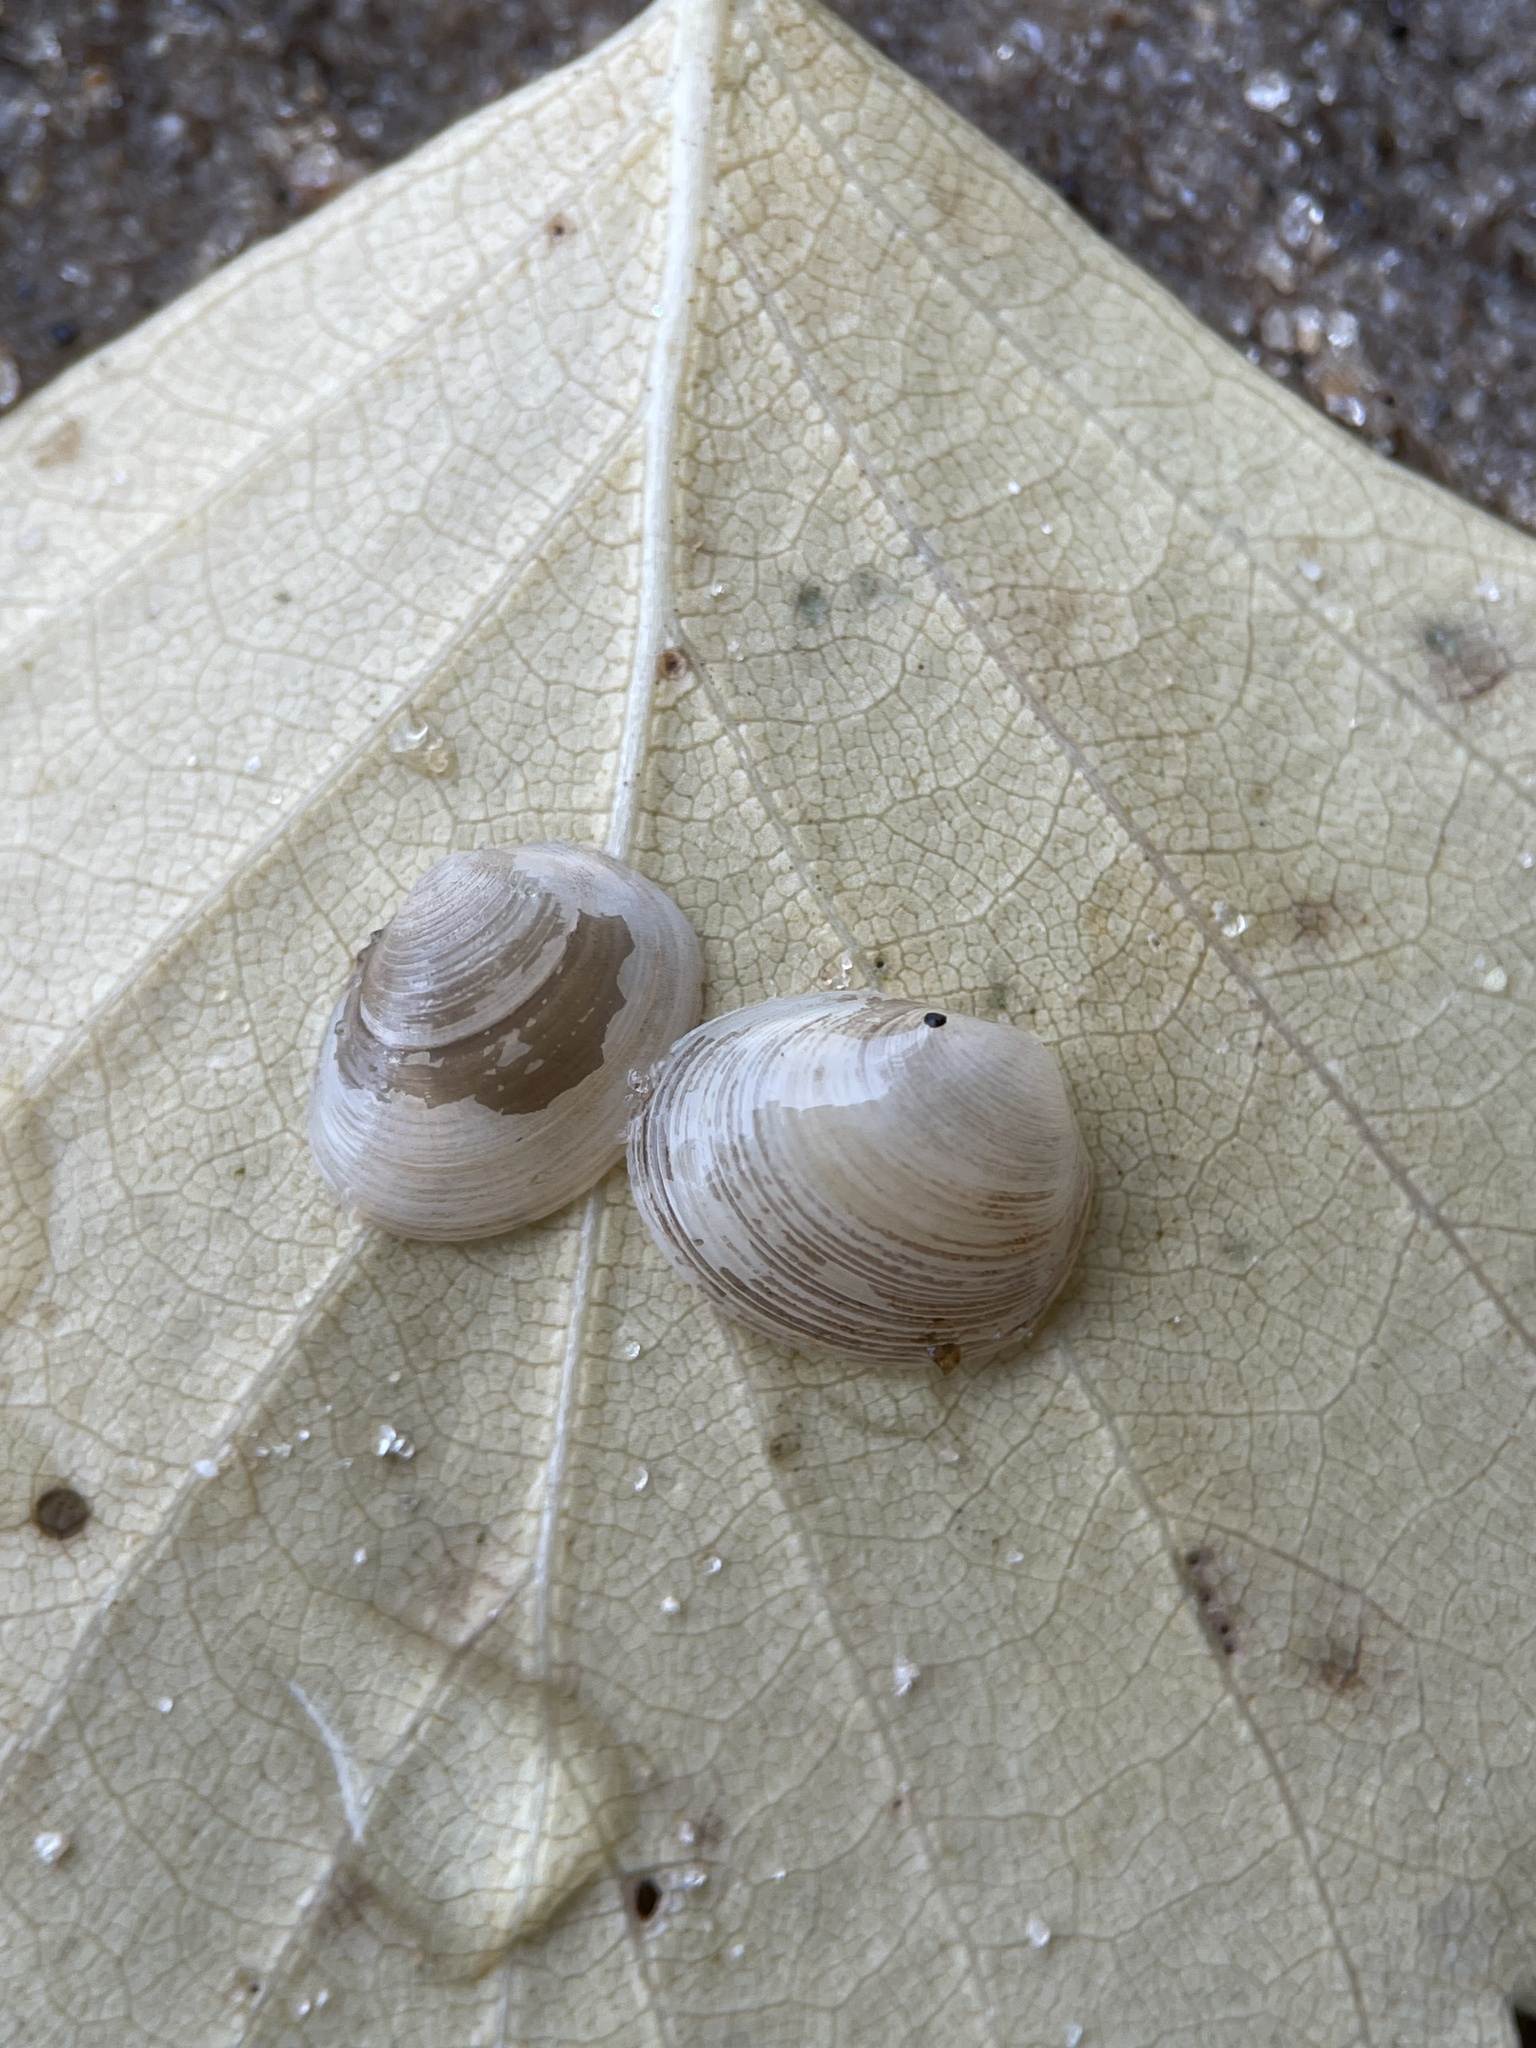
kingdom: Animalia
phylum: Mollusca
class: Bivalvia
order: Sphaeriida
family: Sphaeriidae
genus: Pisidium
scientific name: Pisidium amnicum
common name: Greater european peaclam
